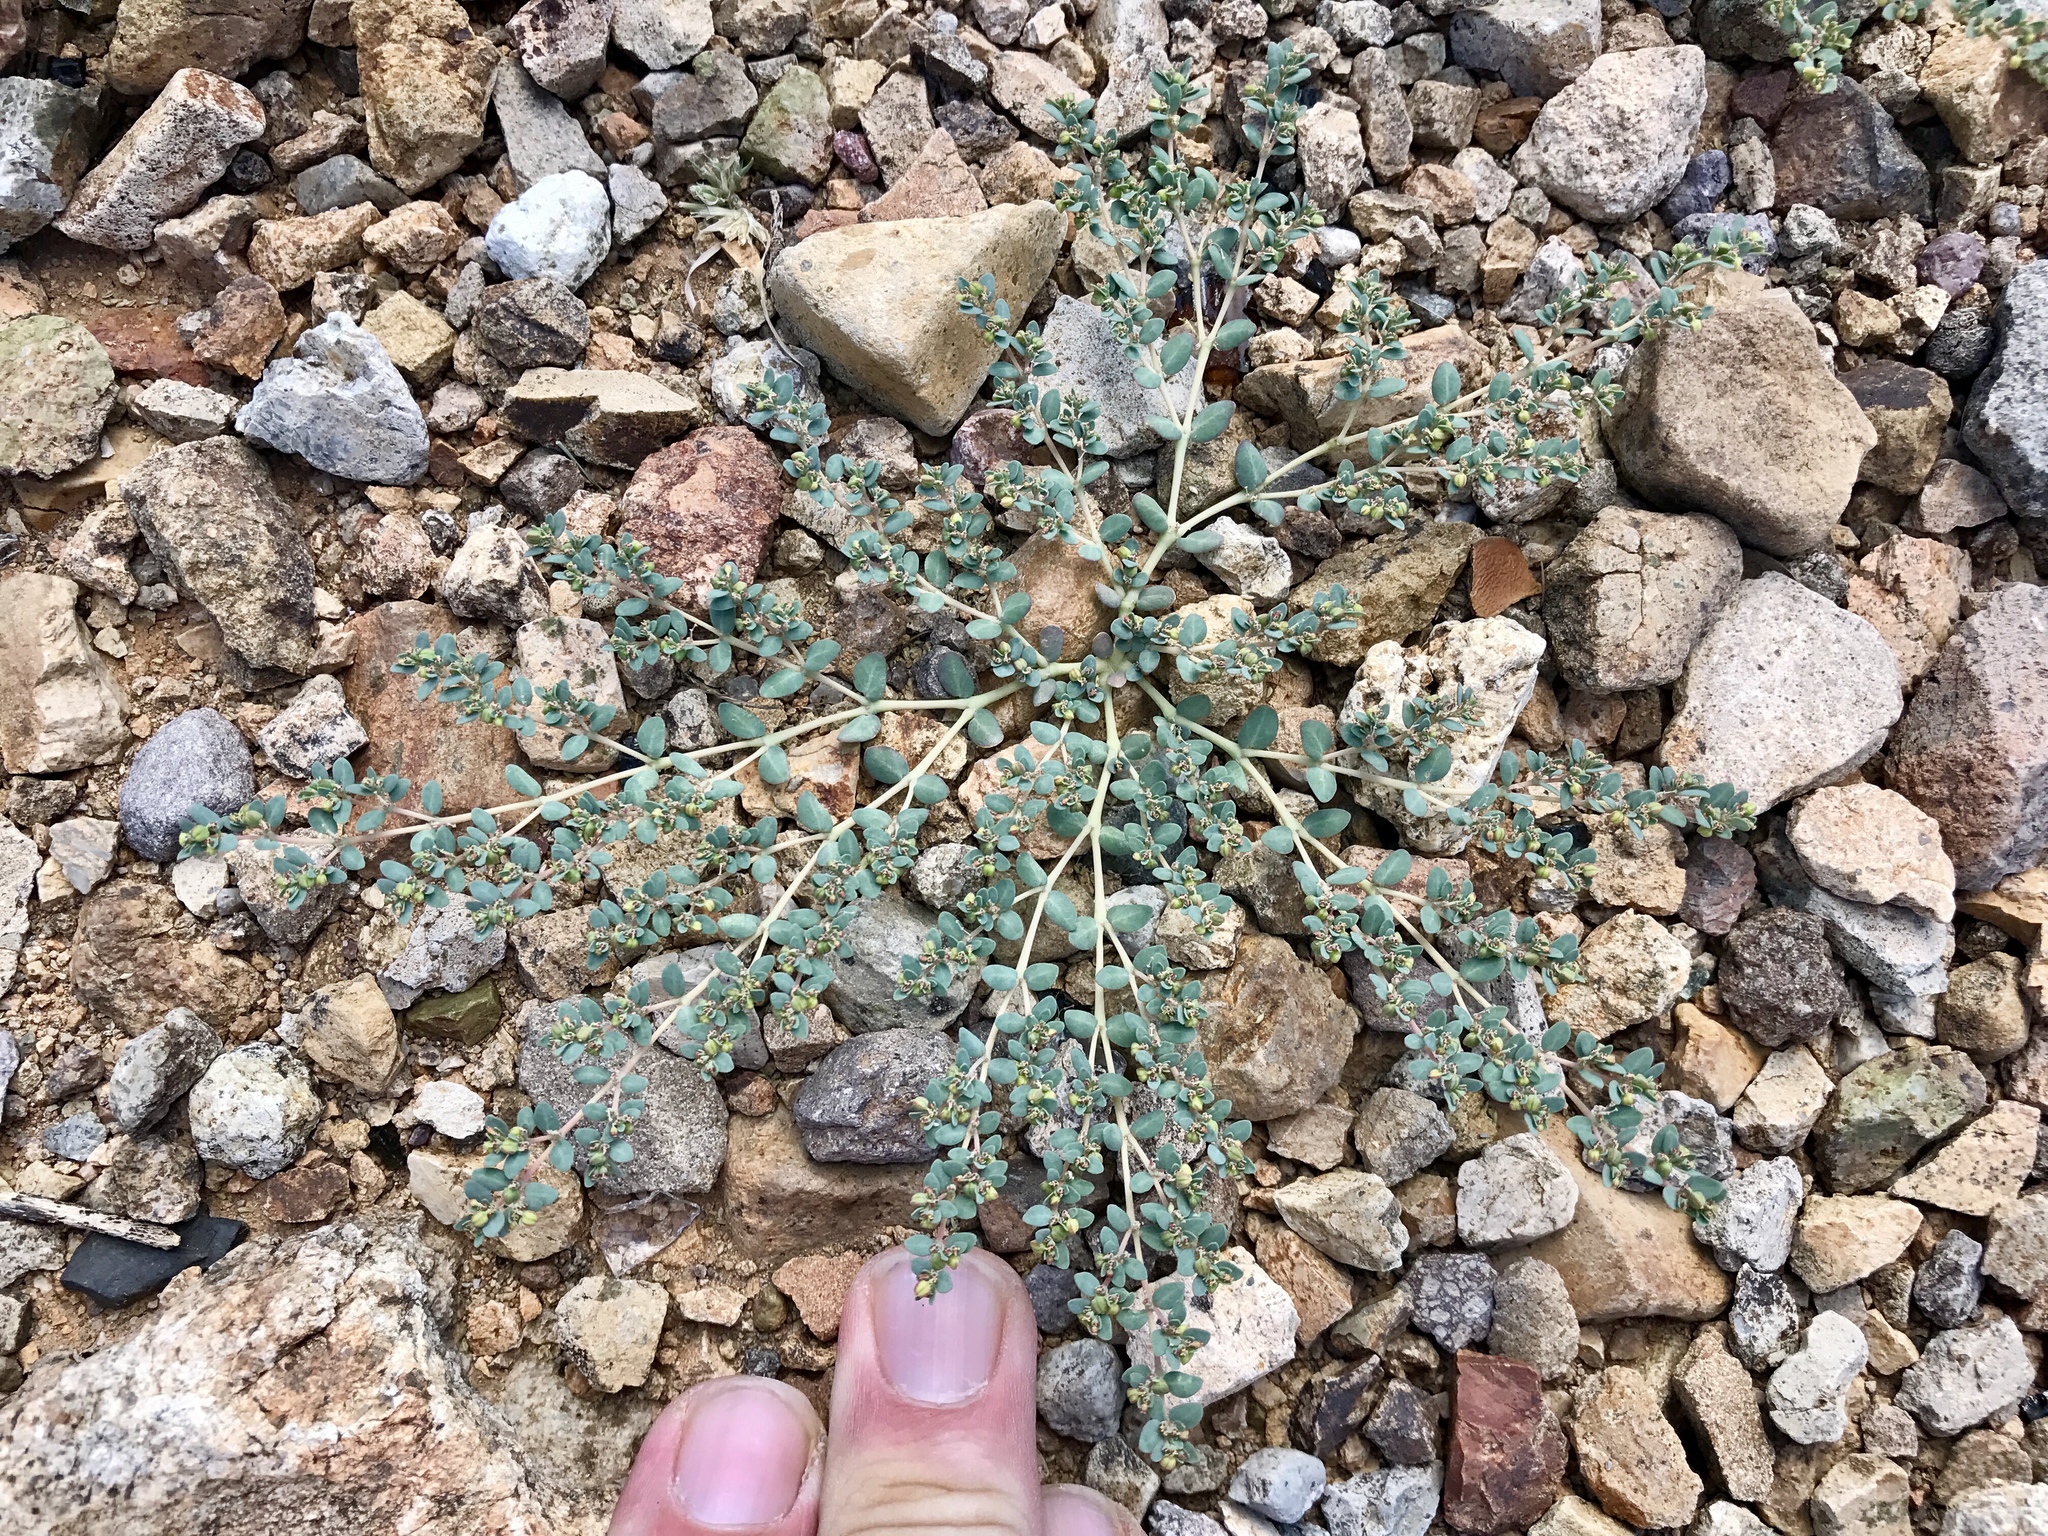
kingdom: Plantae
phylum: Tracheophyta
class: Magnoliopsida
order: Malpighiales
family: Euphorbiaceae
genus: Euphorbia
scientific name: Euphorbia micromera
